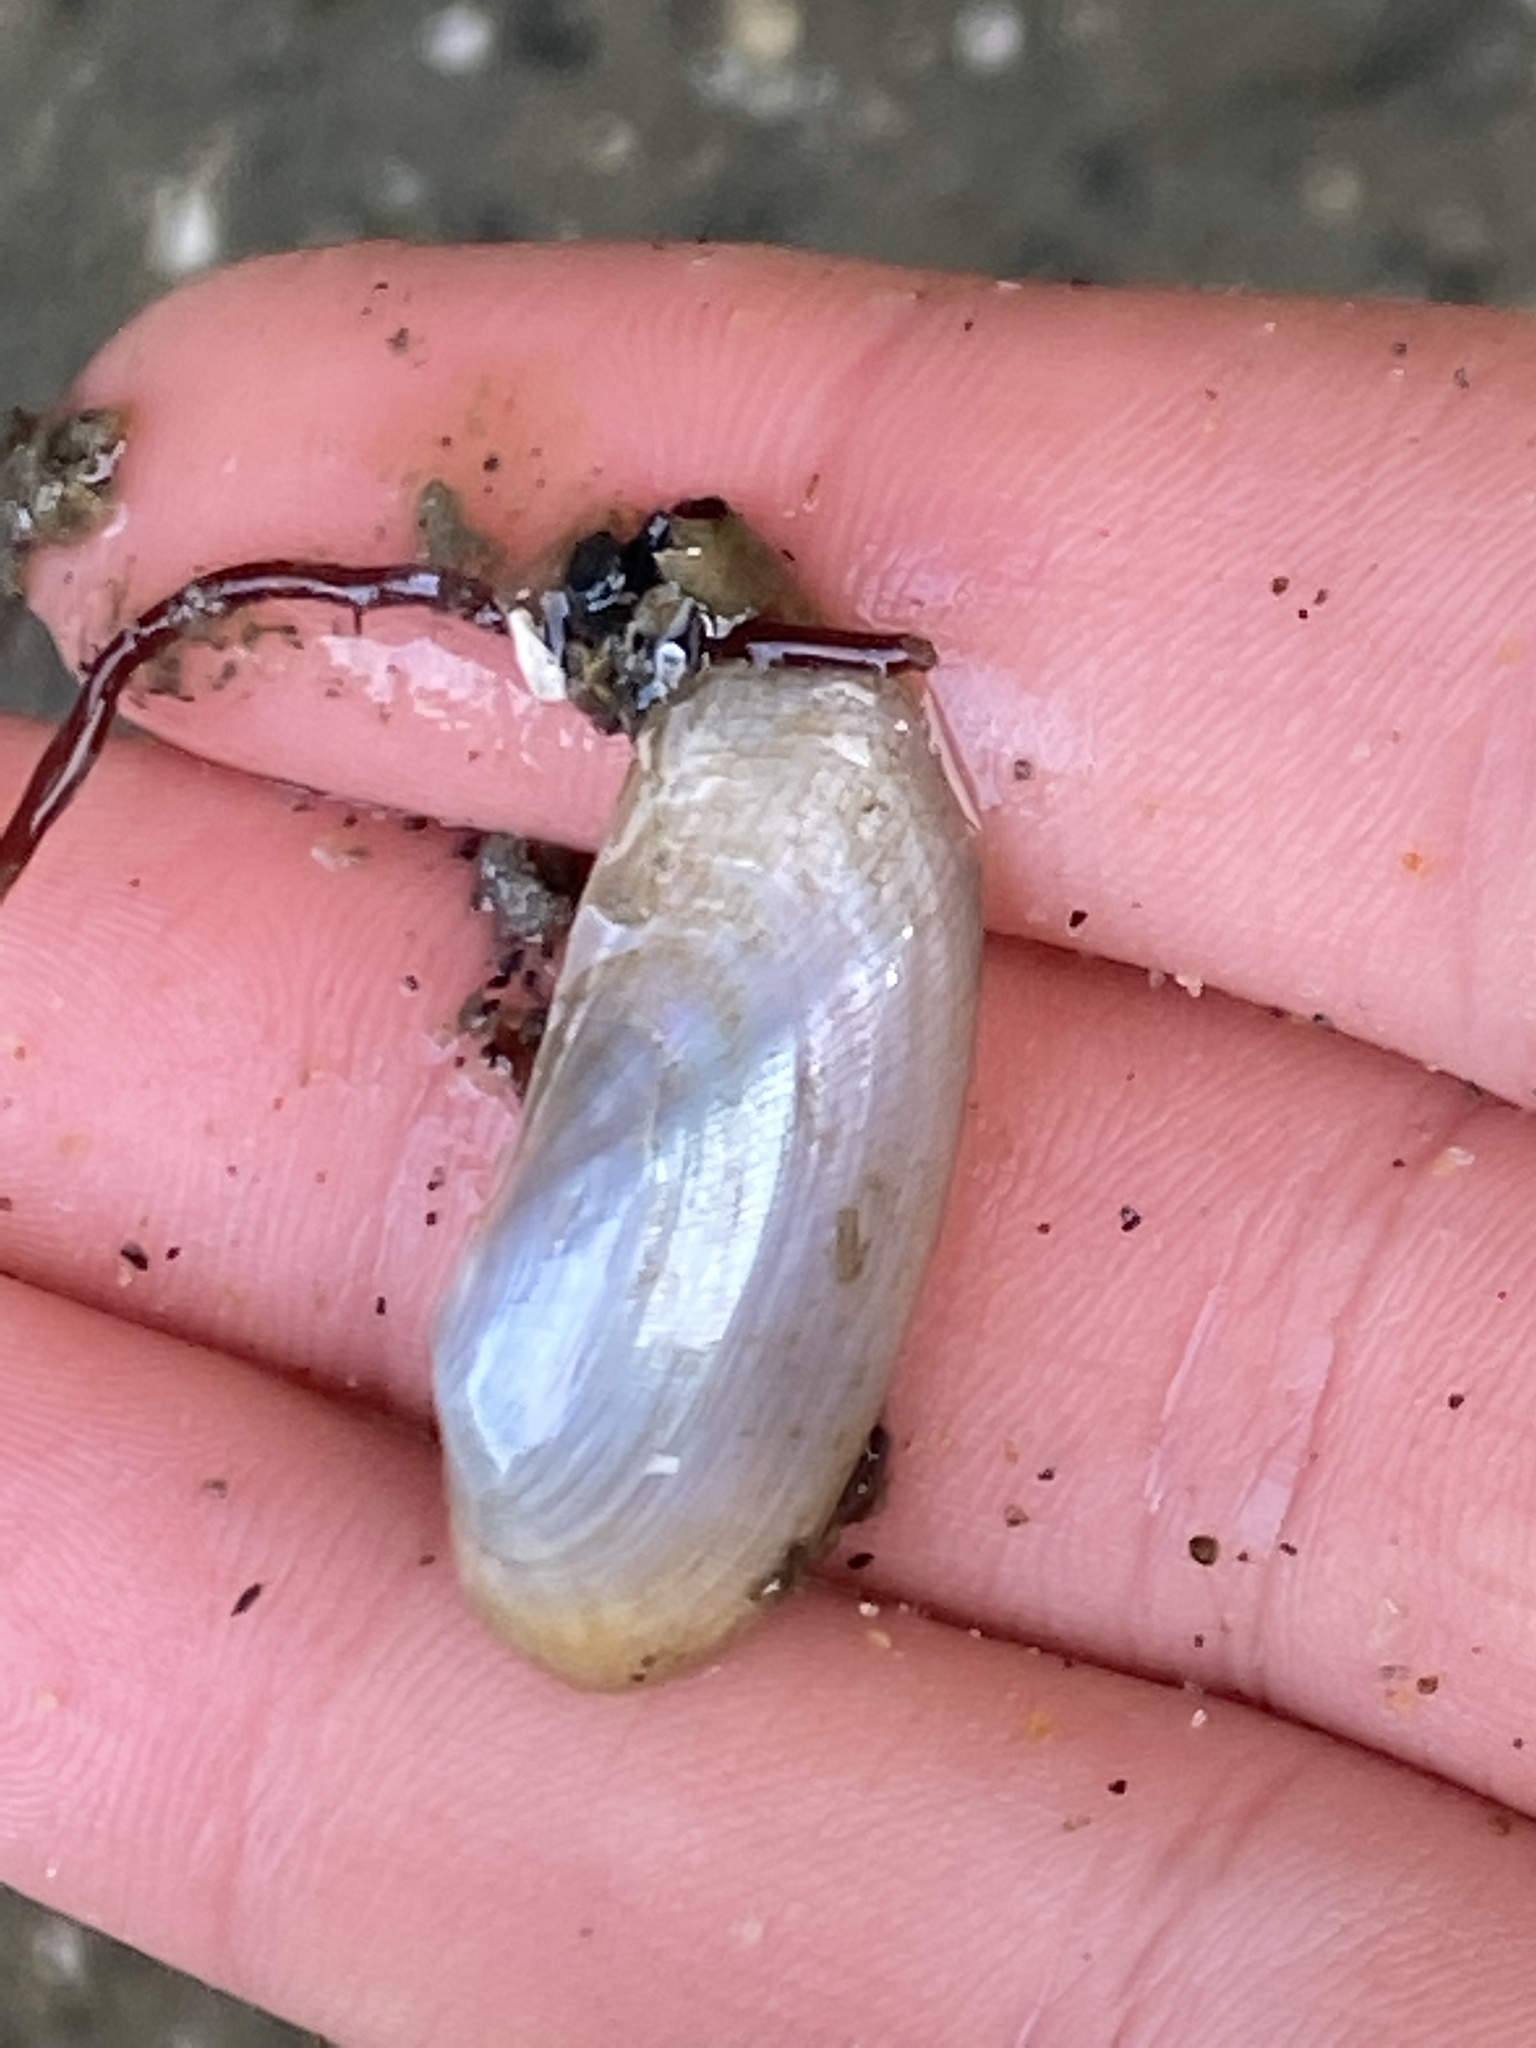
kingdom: Animalia
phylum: Mollusca
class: Bivalvia
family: Lyonsiidae
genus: Lyonsia
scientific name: Lyonsia californica
